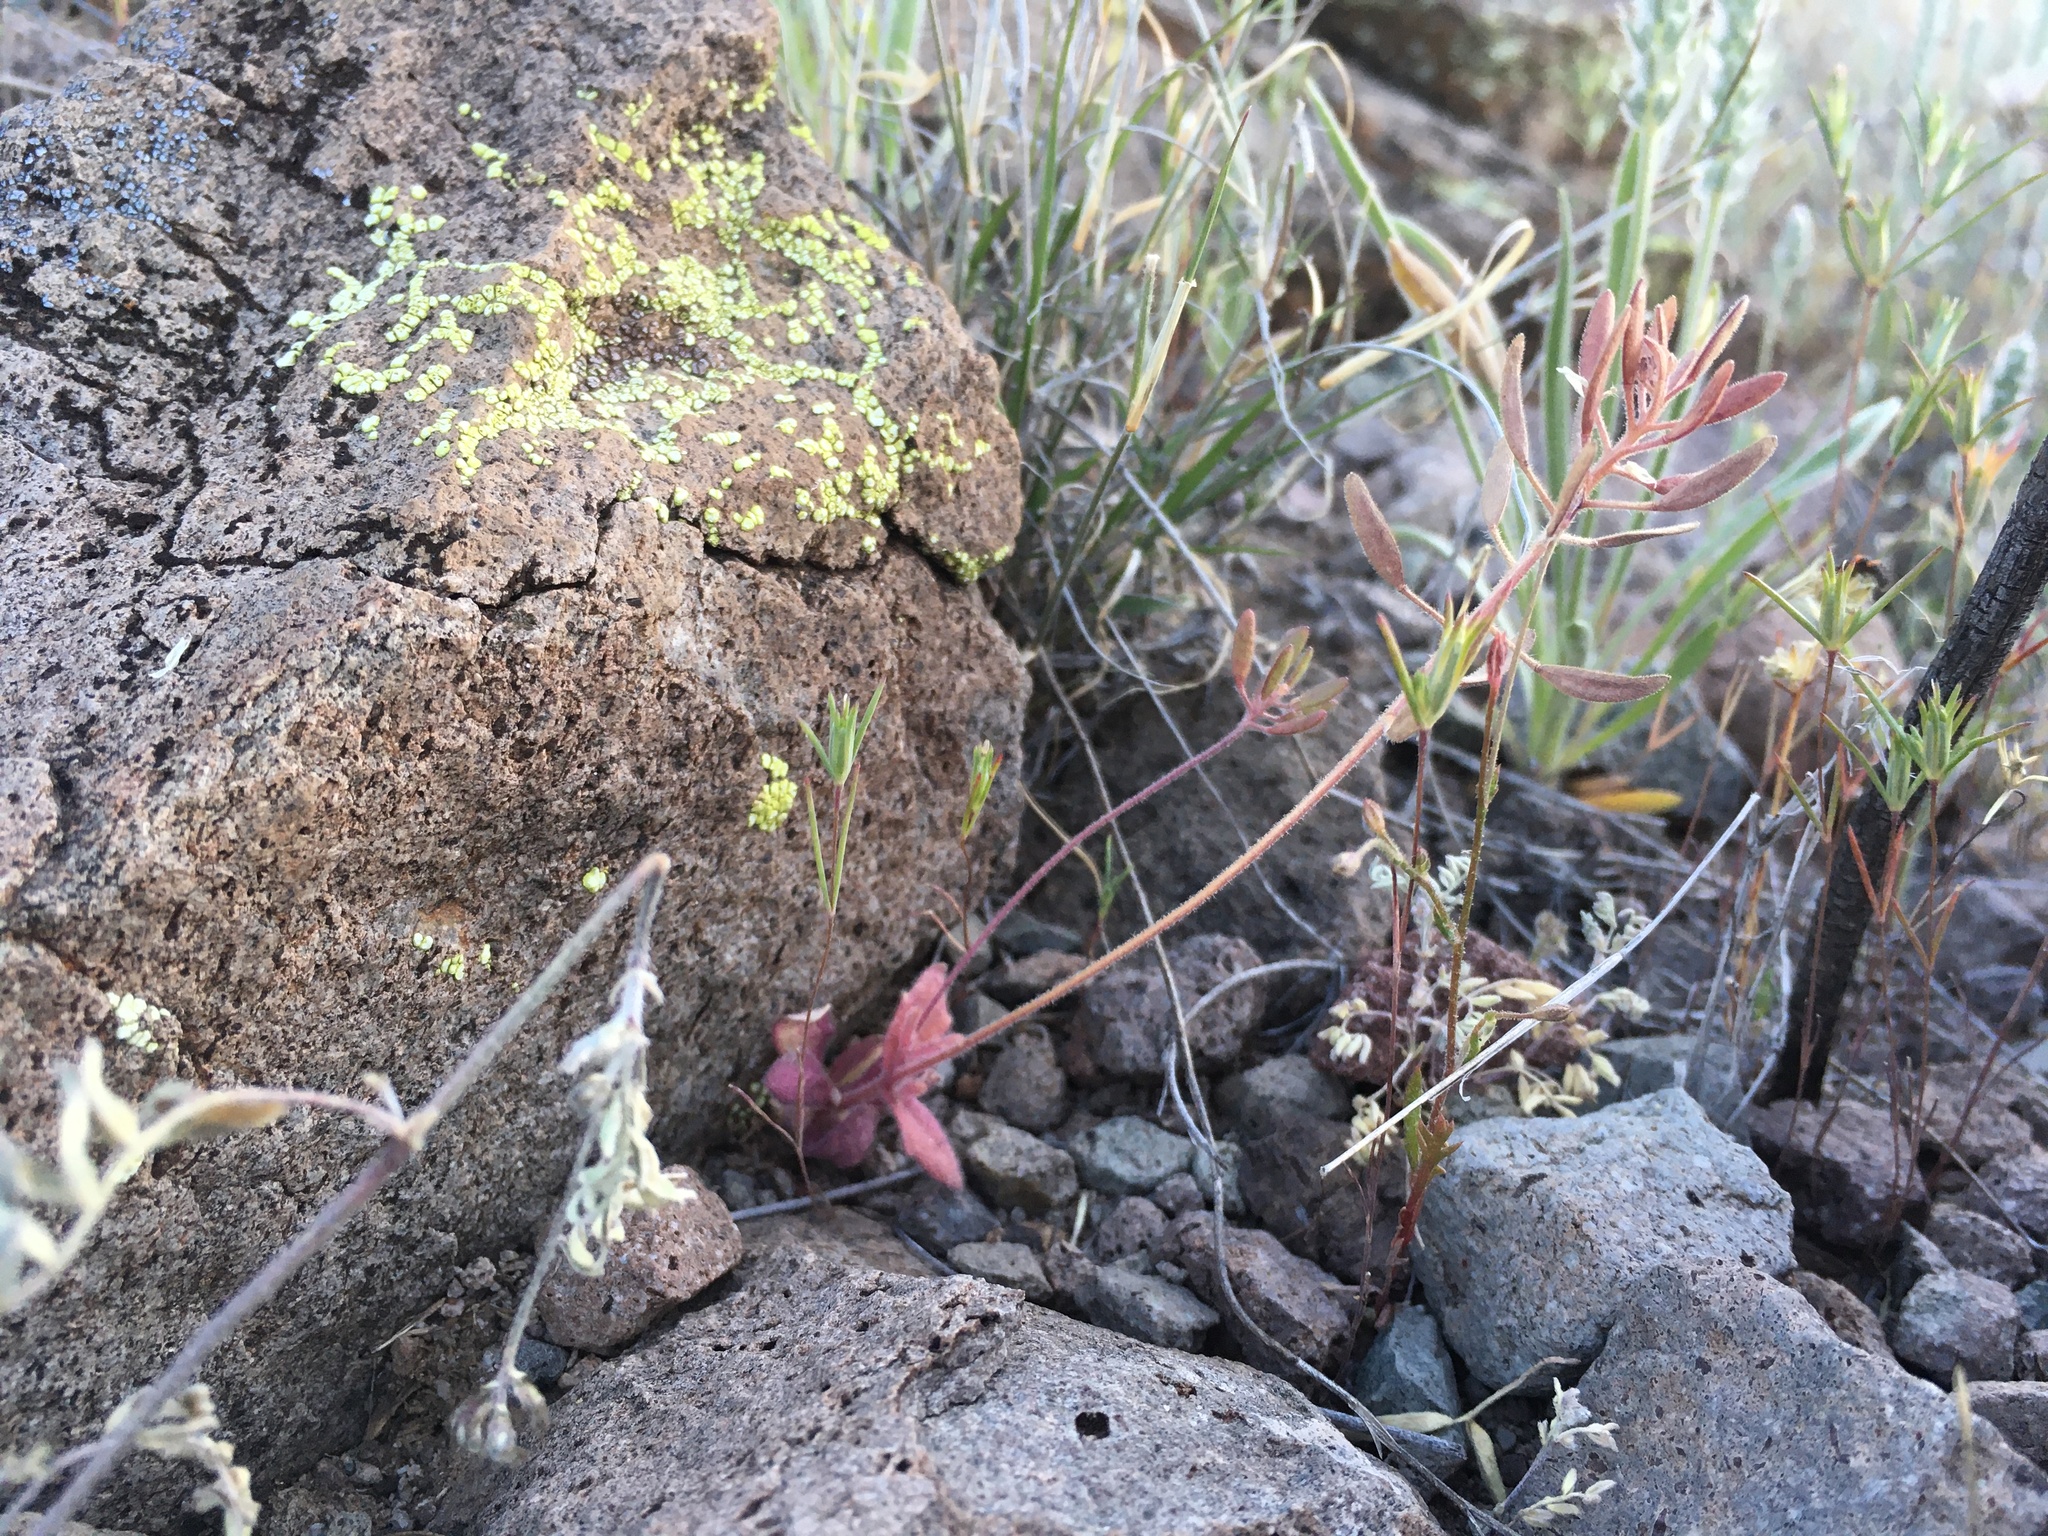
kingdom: Plantae
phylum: Tracheophyta
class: Magnoliopsida
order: Brassicales
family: Brassicaceae
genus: Tomostima
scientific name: Tomostima cuneifolia
